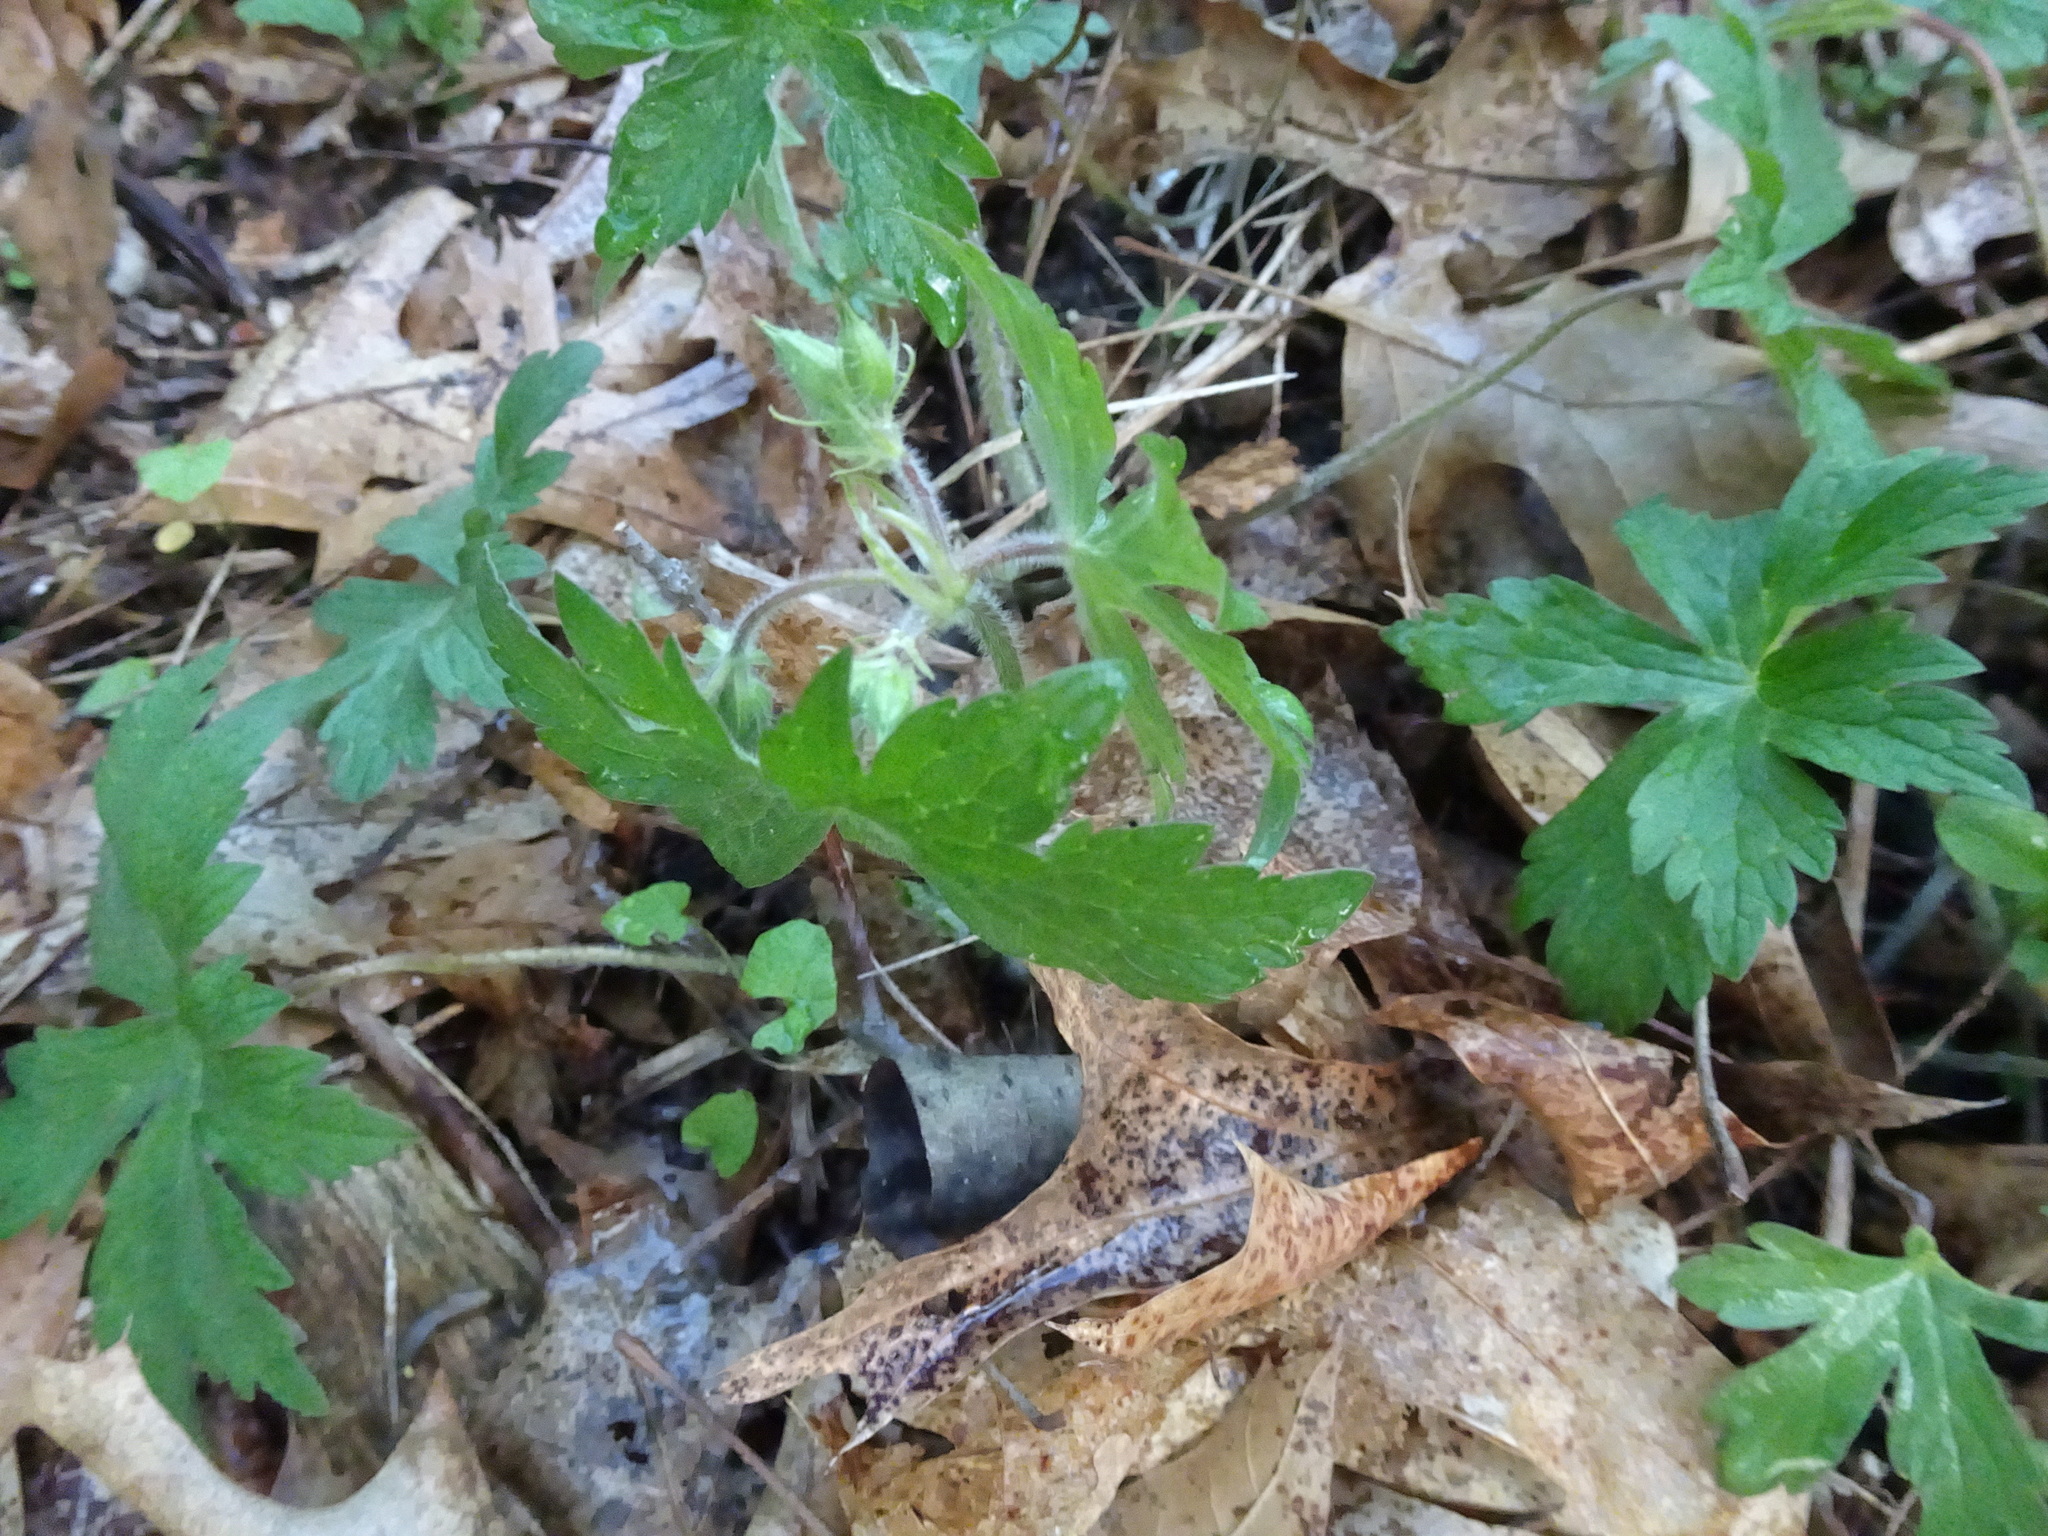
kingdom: Plantae
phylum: Tracheophyta
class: Magnoliopsida
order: Geraniales
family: Geraniaceae
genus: Geranium
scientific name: Geranium maculatum
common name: Spotted geranium
